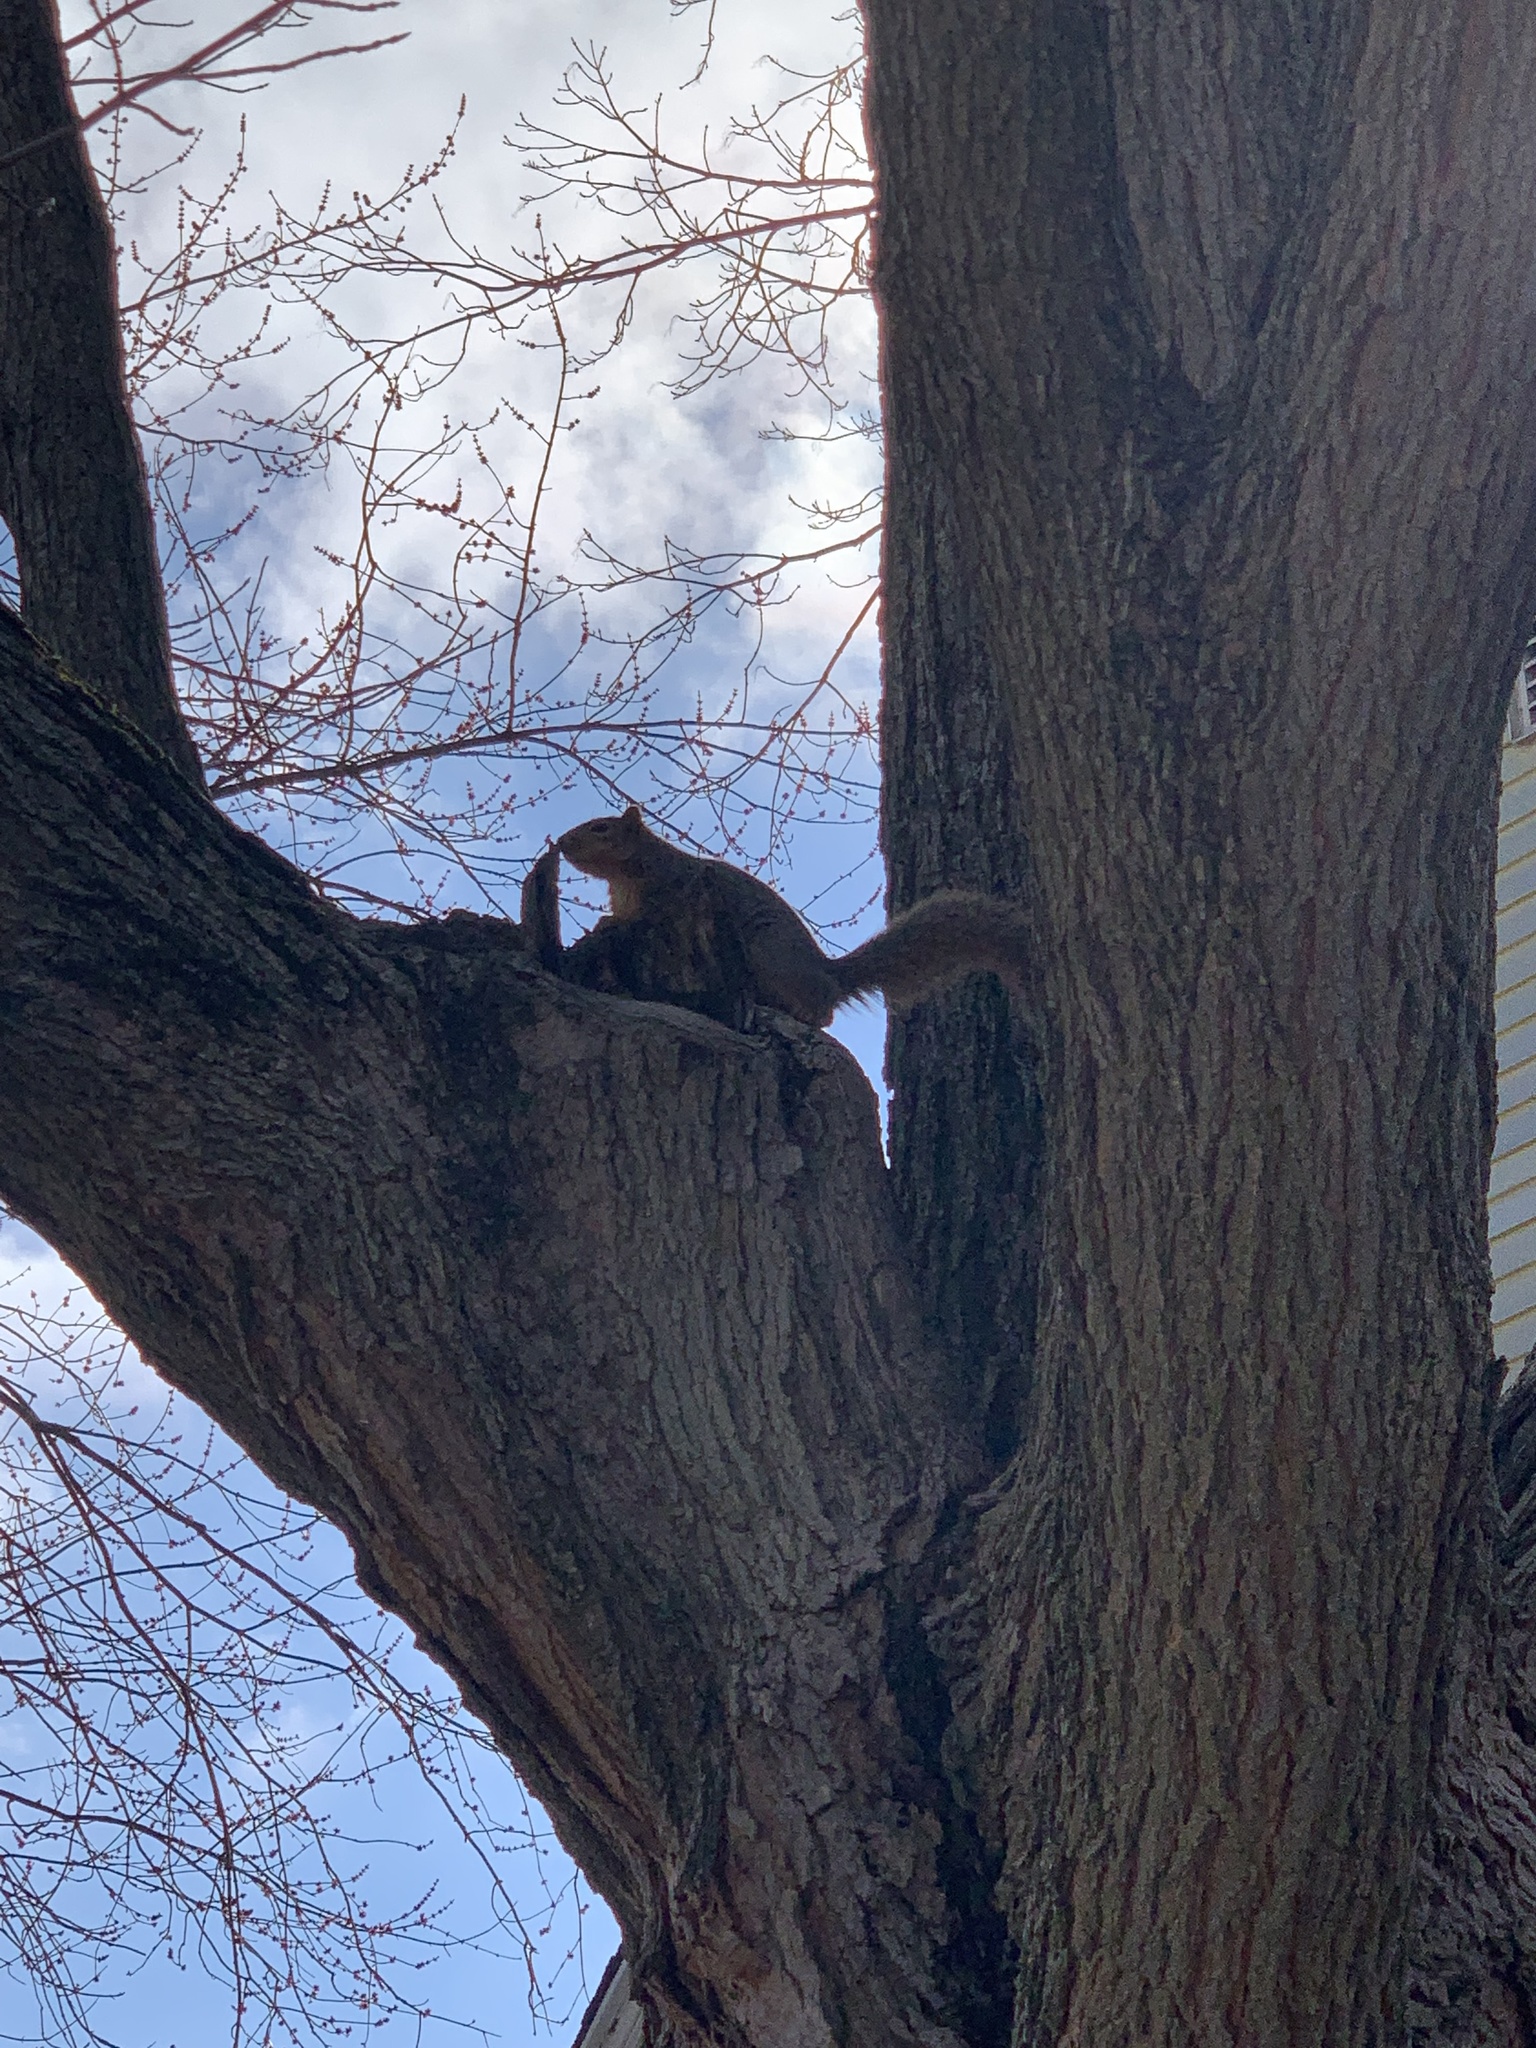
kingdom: Animalia
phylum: Chordata
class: Mammalia
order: Rodentia
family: Sciuridae
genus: Sciurus
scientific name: Sciurus niger
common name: Fox squirrel
